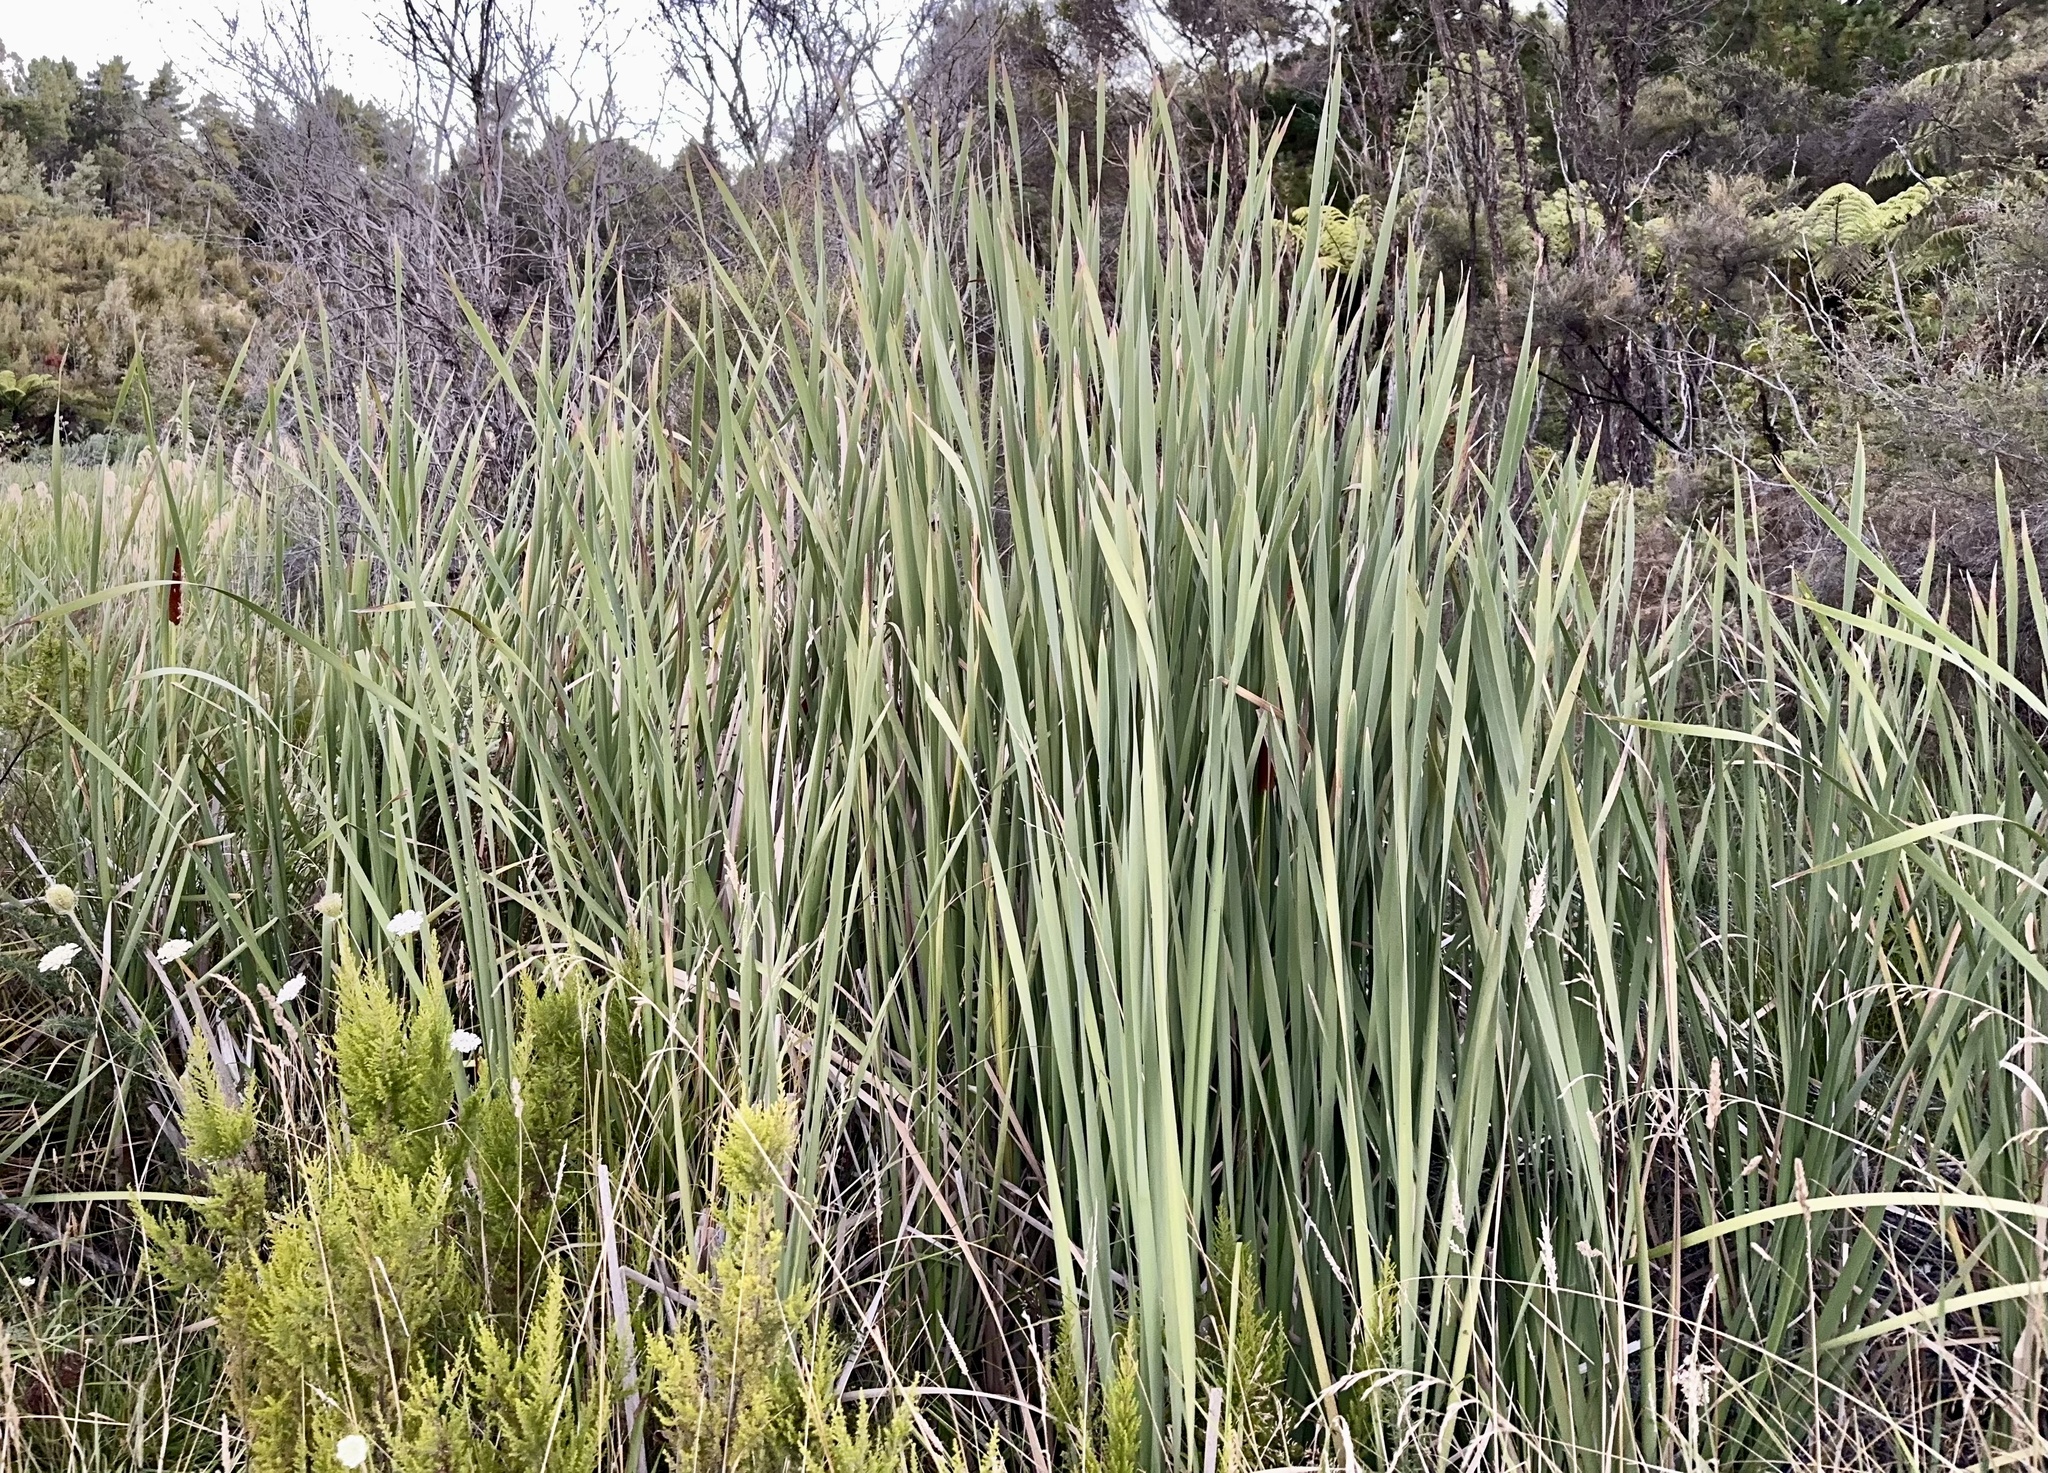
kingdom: Plantae
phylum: Tracheophyta
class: Liliopsida
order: Poales
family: Typhaceae
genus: Typha
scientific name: Typha orientalis
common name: Bullrush
